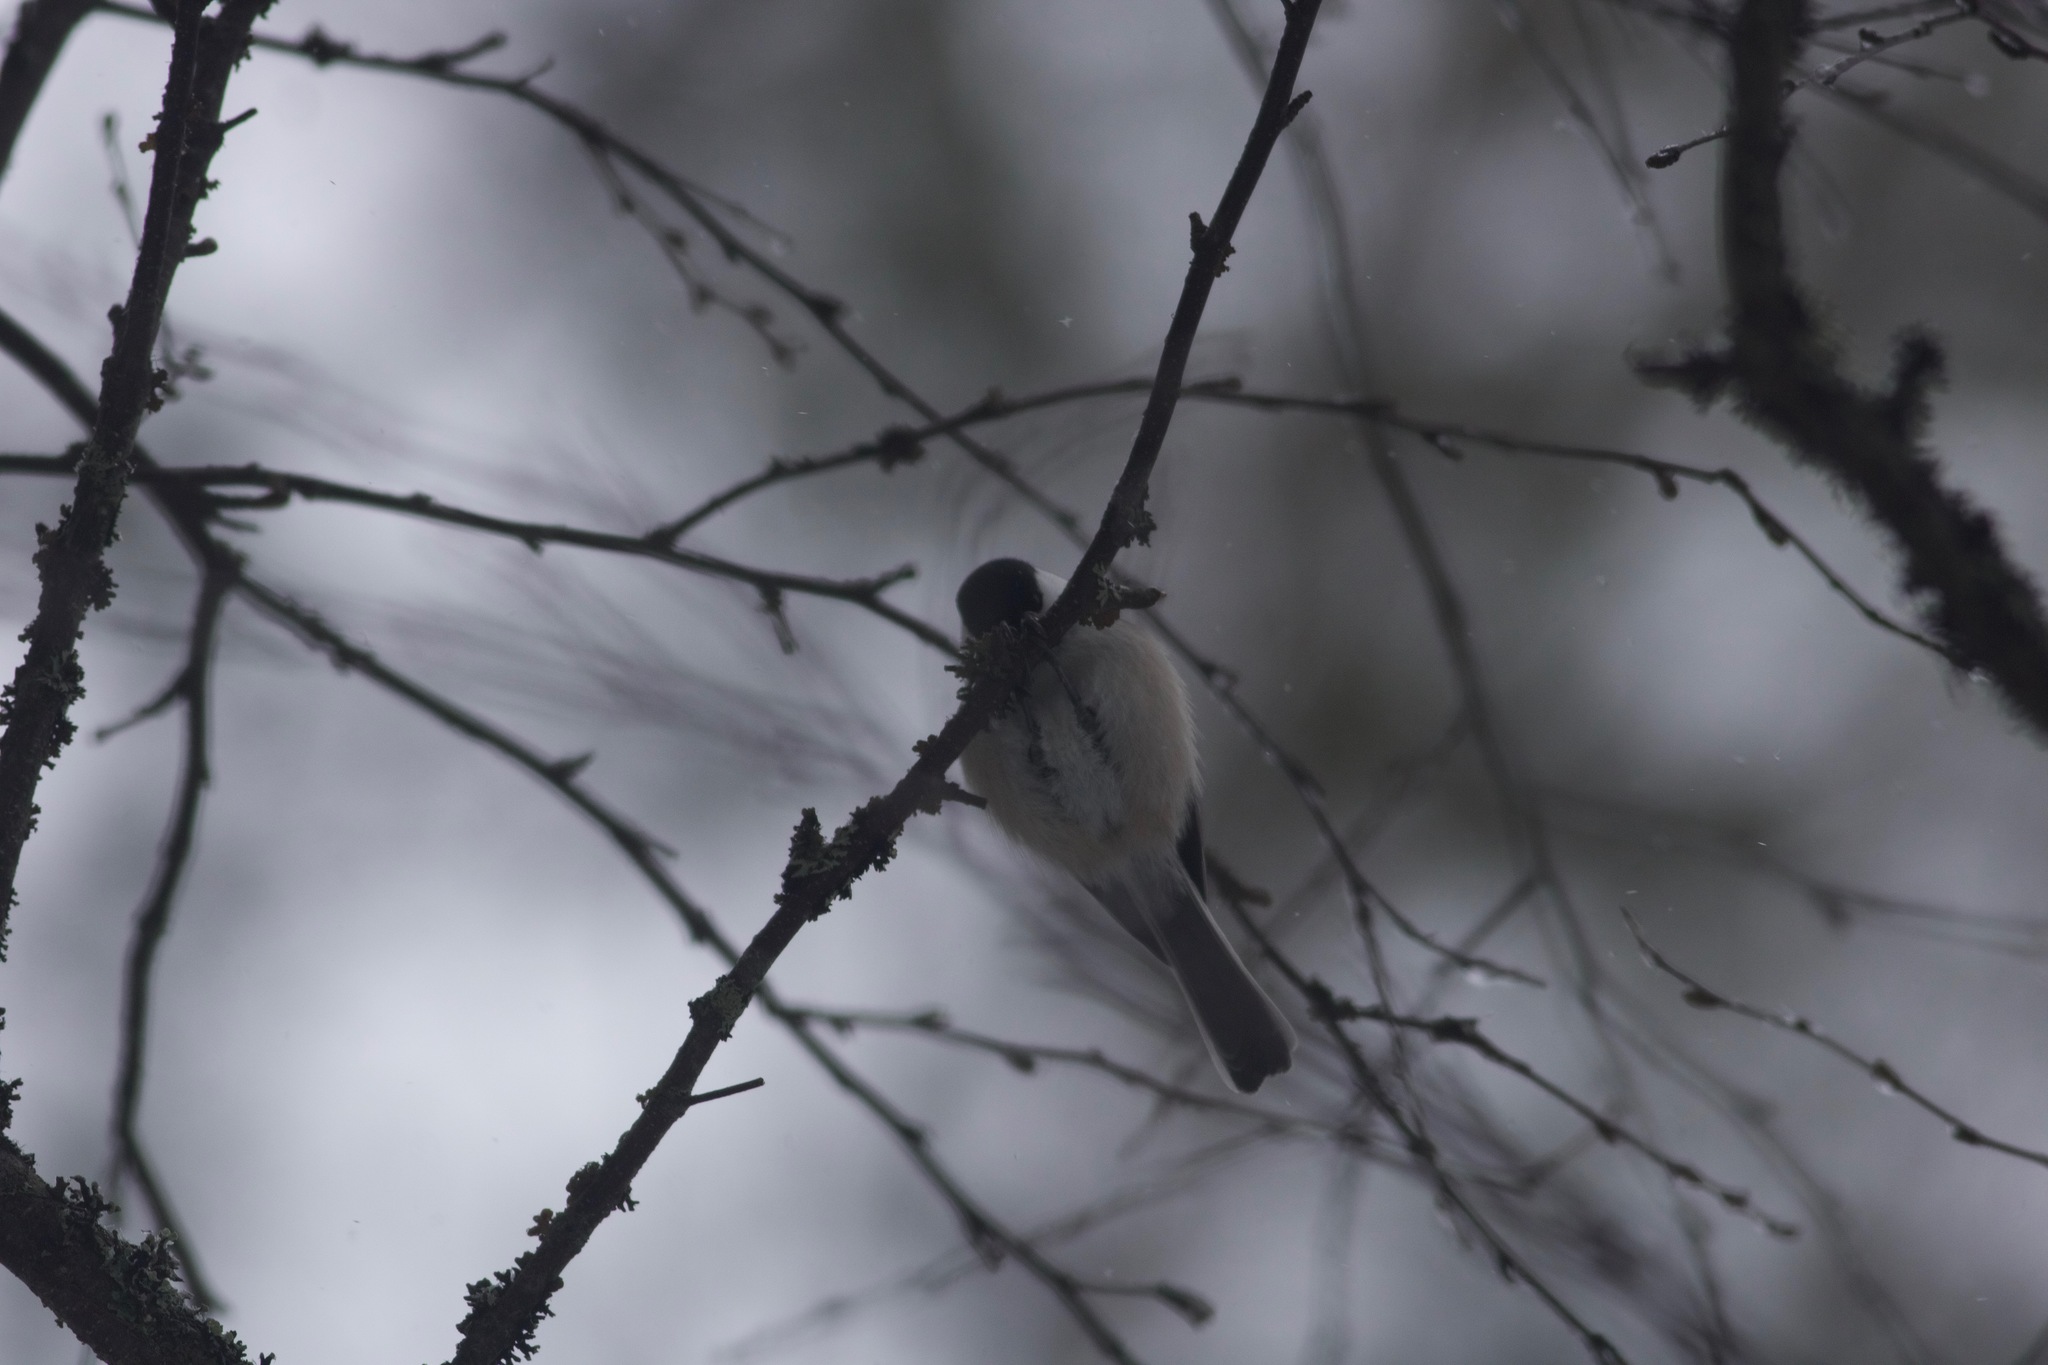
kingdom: Animalia
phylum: Chordata
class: Aves
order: Passeriformes
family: Paridae
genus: Poecile
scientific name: Poecile montanus
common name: Willow tit
